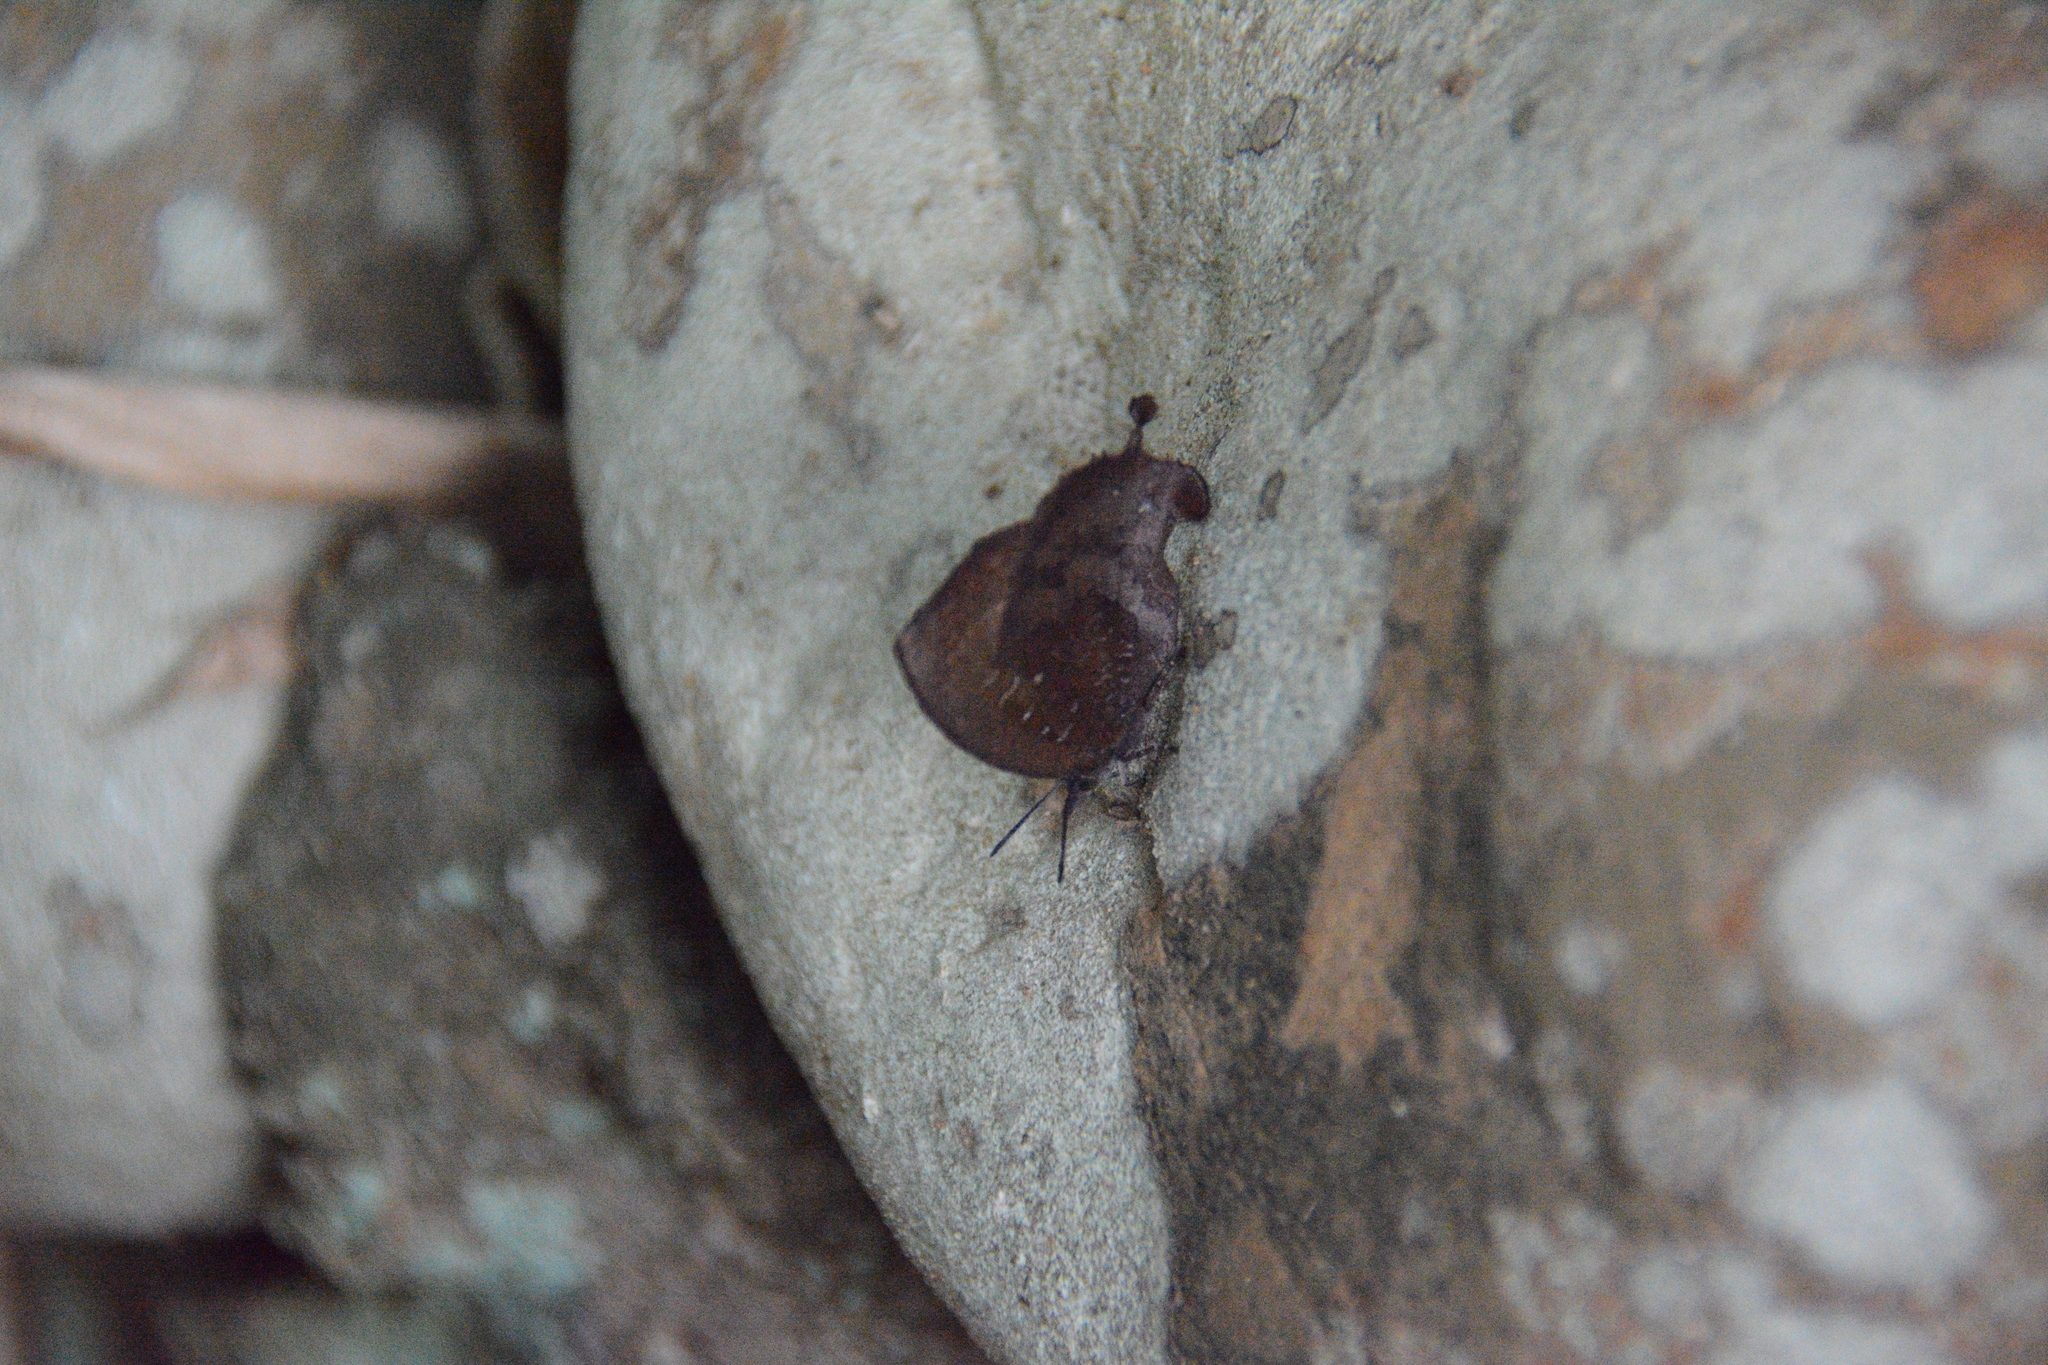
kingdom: Animalia
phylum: Arthropoda
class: Insecta
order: Lepidoptera
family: Lycaenidae
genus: Mahathala
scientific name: Mahathala ameria
